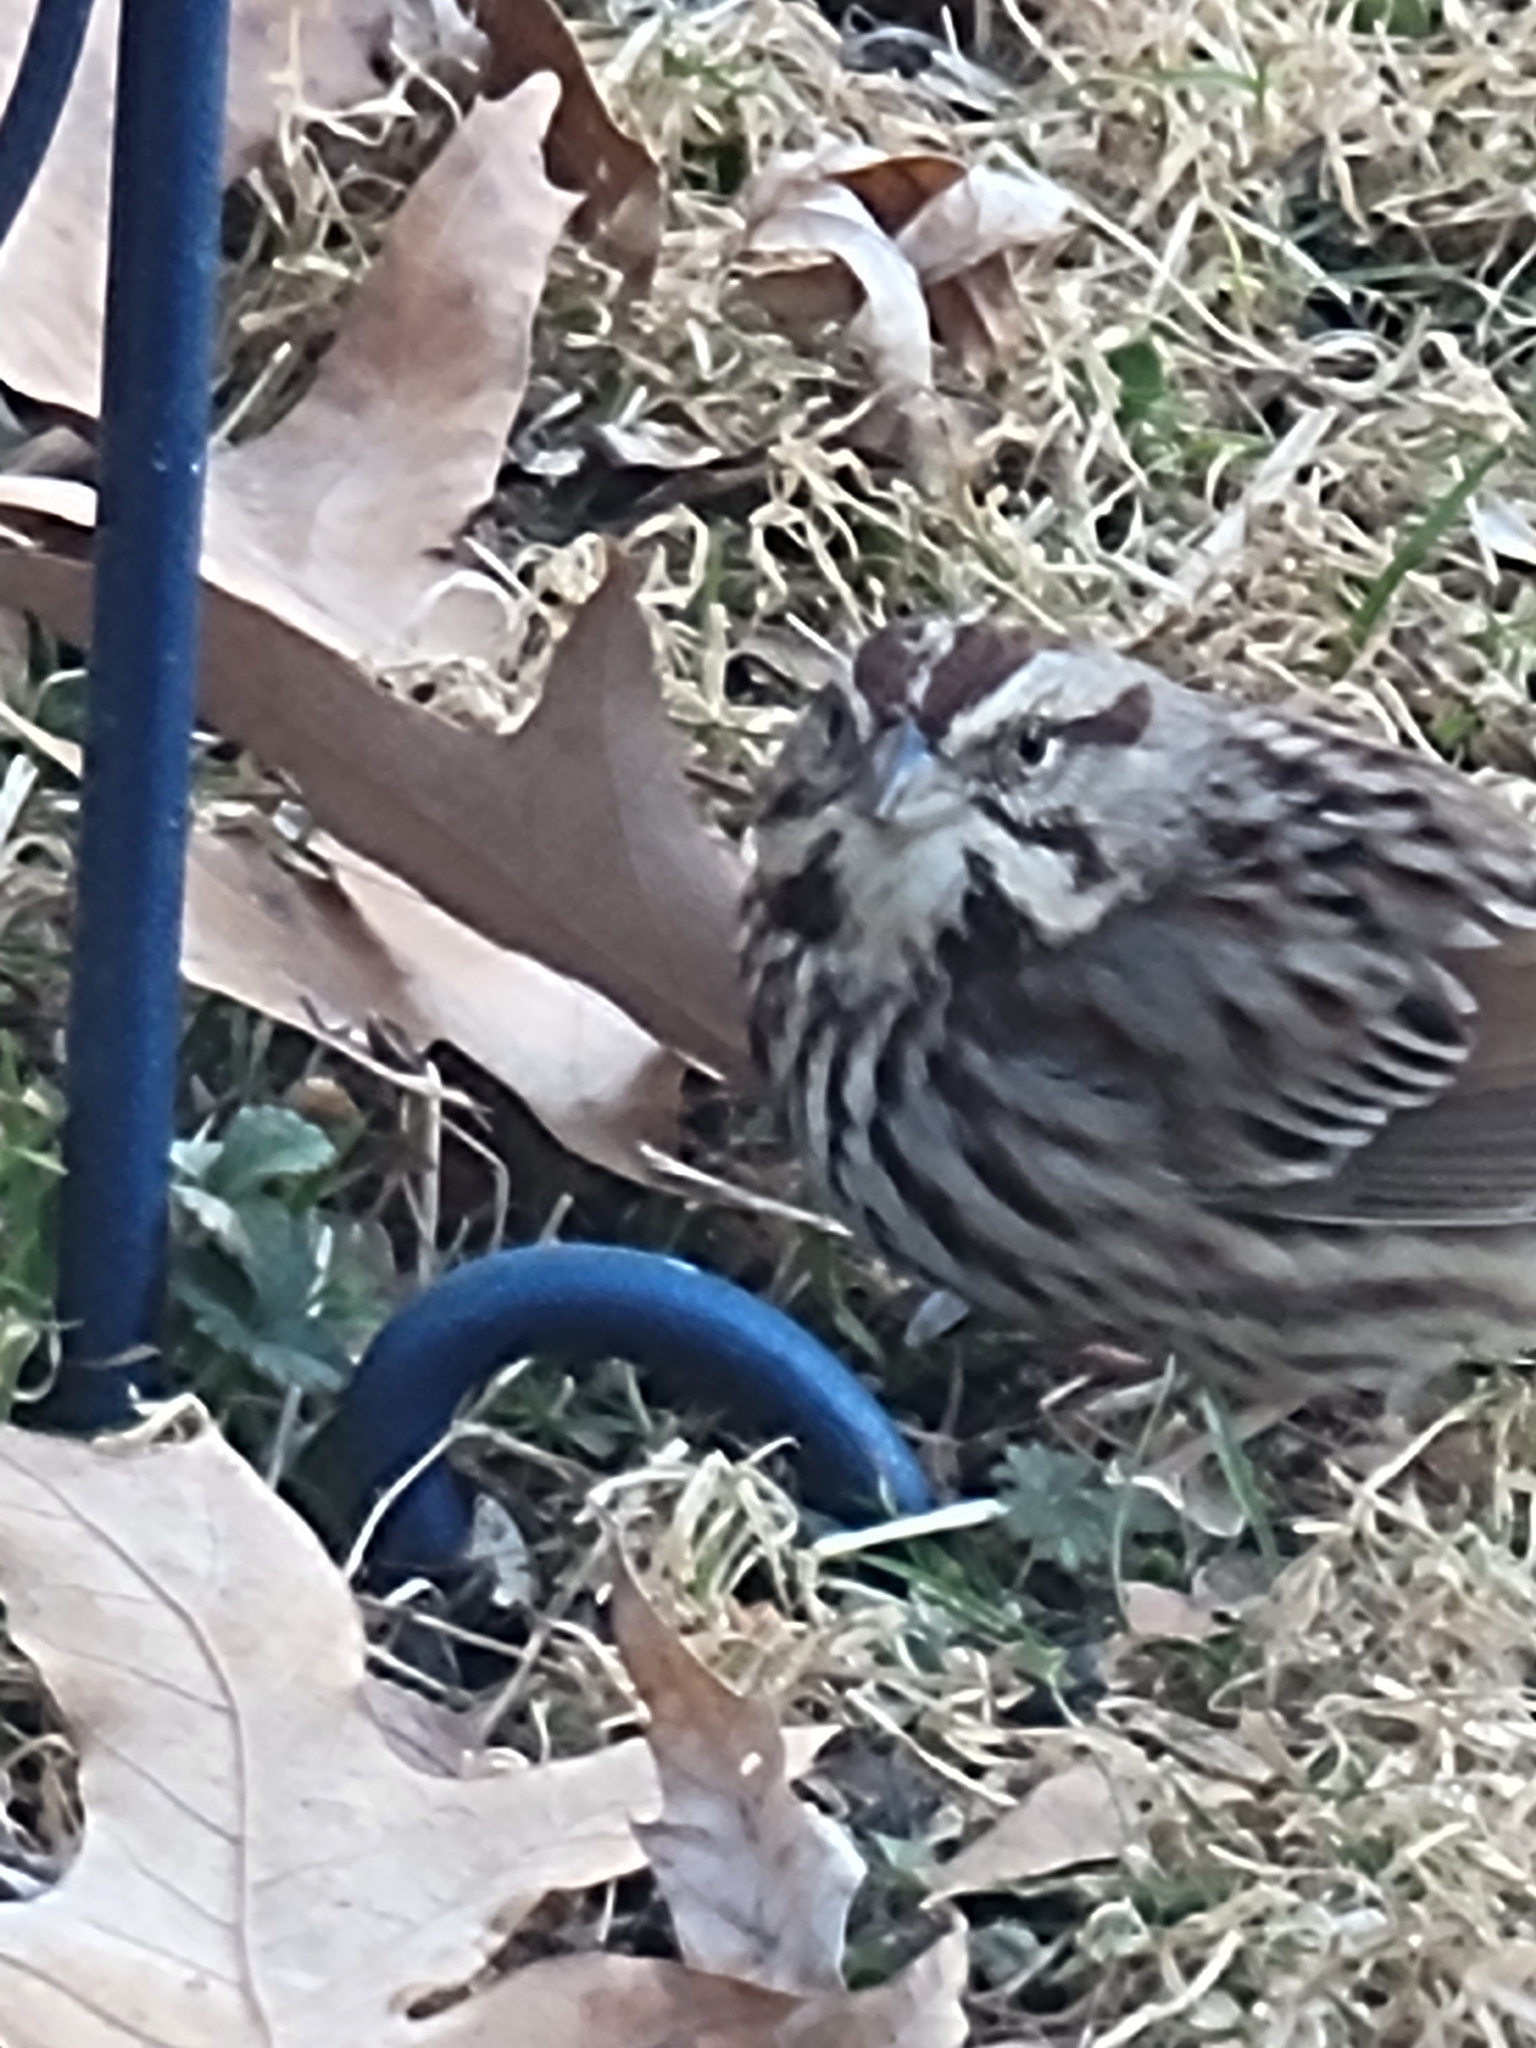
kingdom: Animalia
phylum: Chordata
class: Aves
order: Passeriformes
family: Passerellidae
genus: Melospiza
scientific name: Melospiza melodia
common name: Song sparrow
